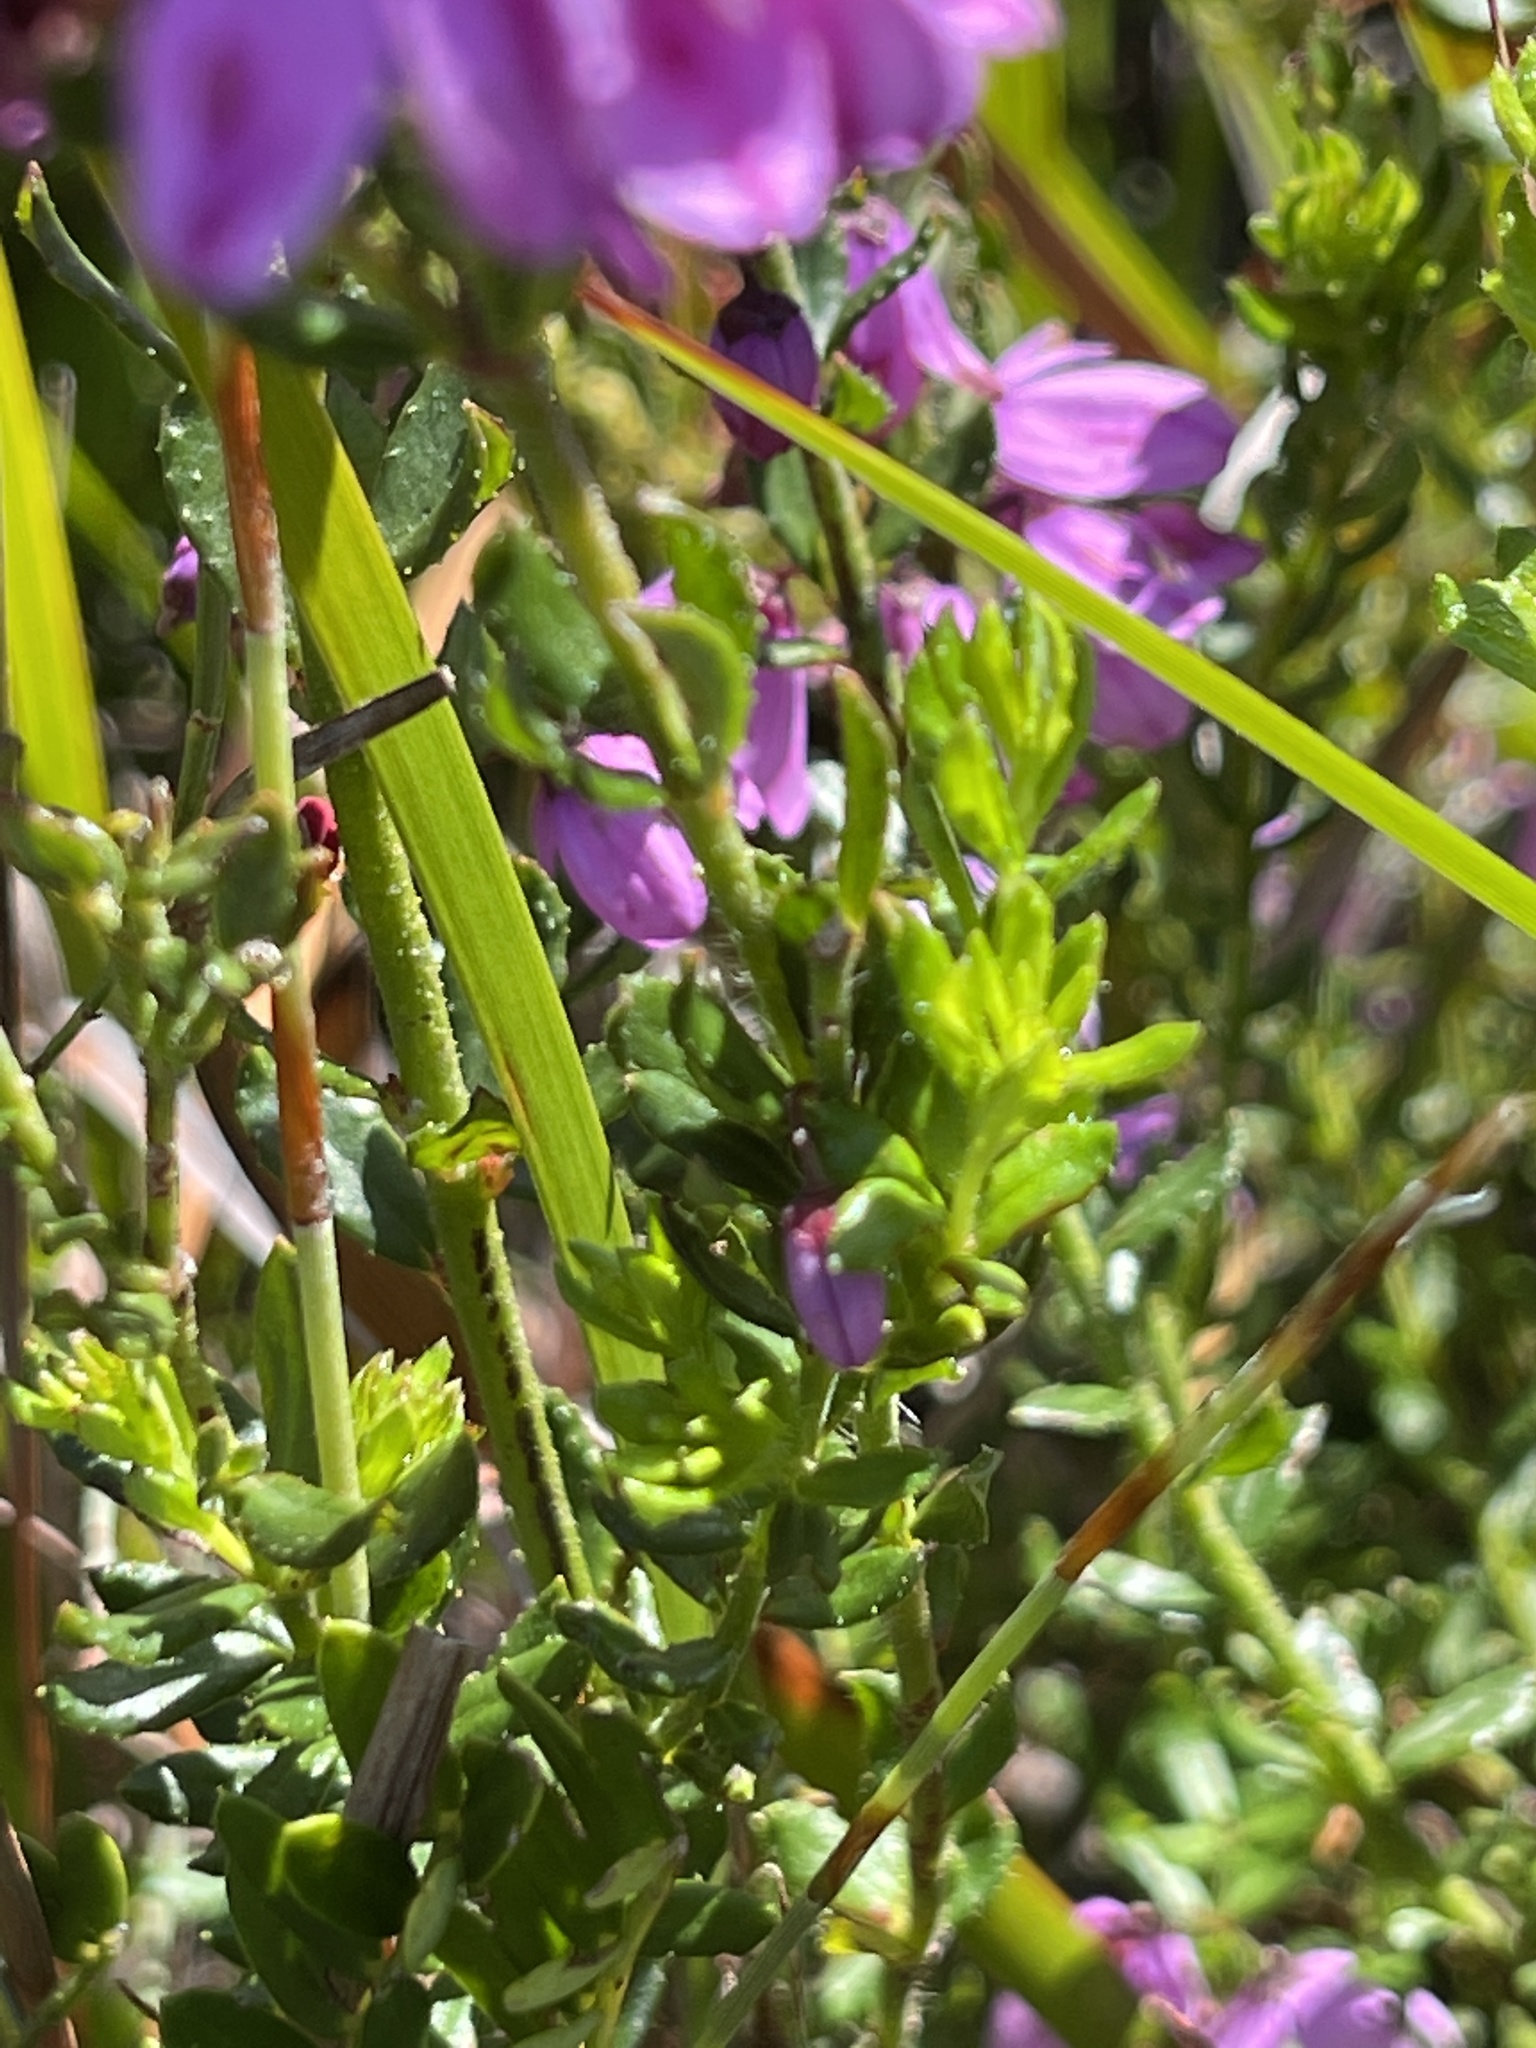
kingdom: Plantae
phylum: Tracheophyta
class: Magnoliopsida
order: Oxalidales
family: Elaeocarpaceae
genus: Tetratheca
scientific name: Tetratheca pilosa
